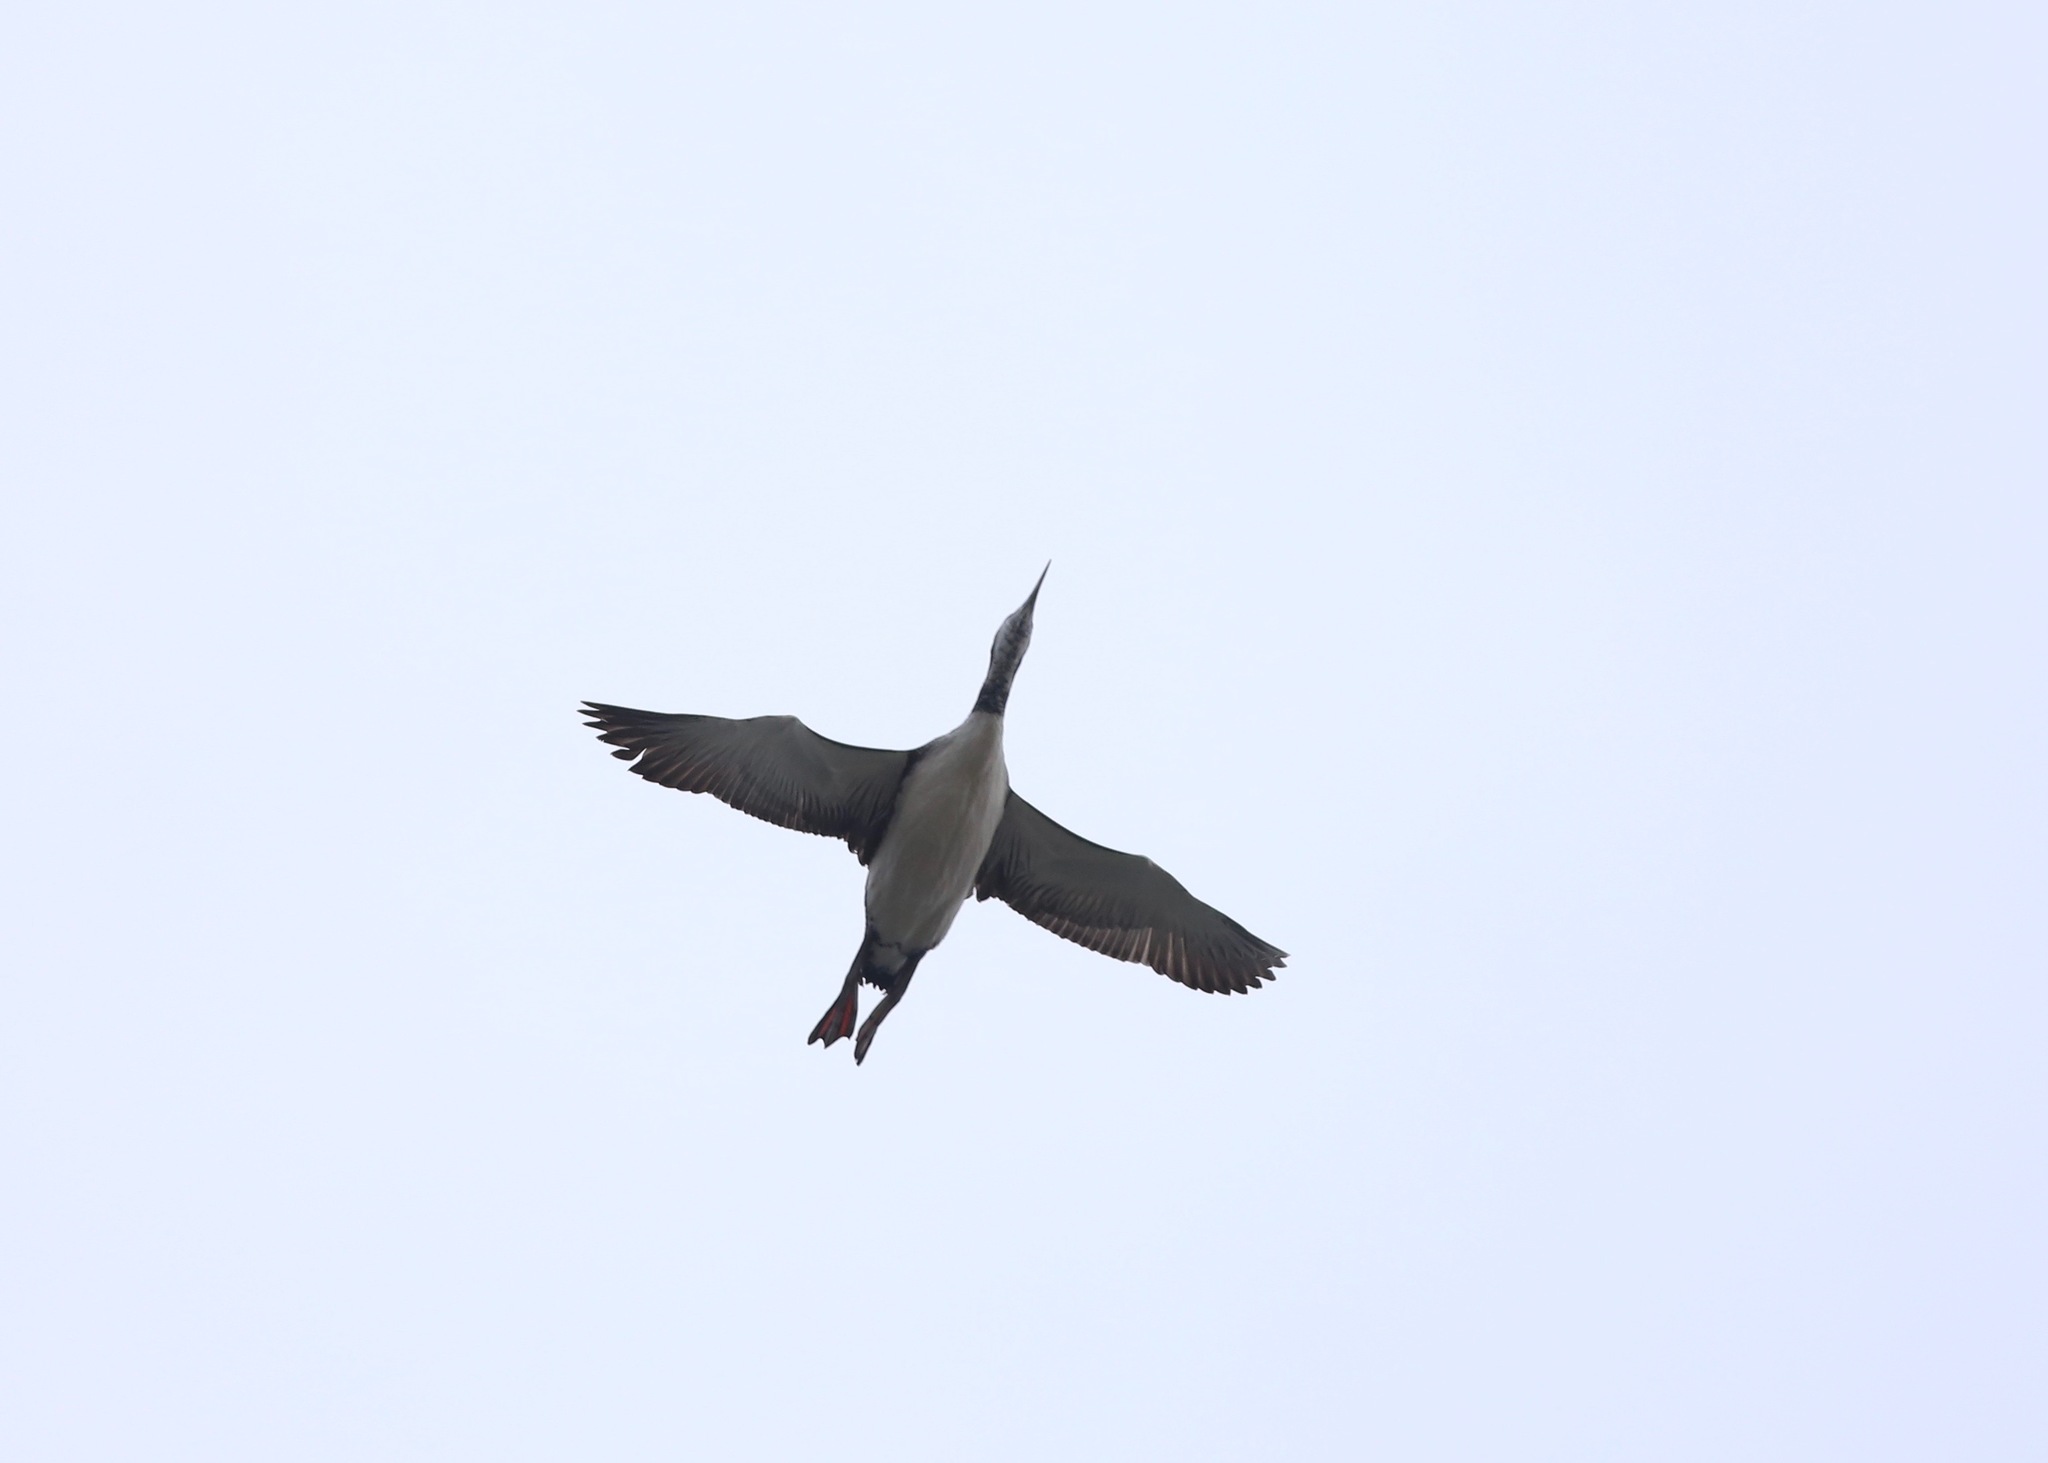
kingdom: Animalia
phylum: Chordata
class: Aves
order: Gaviiformes
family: Gaviidae
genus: Gavia
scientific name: Gavia immer
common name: Common loon
